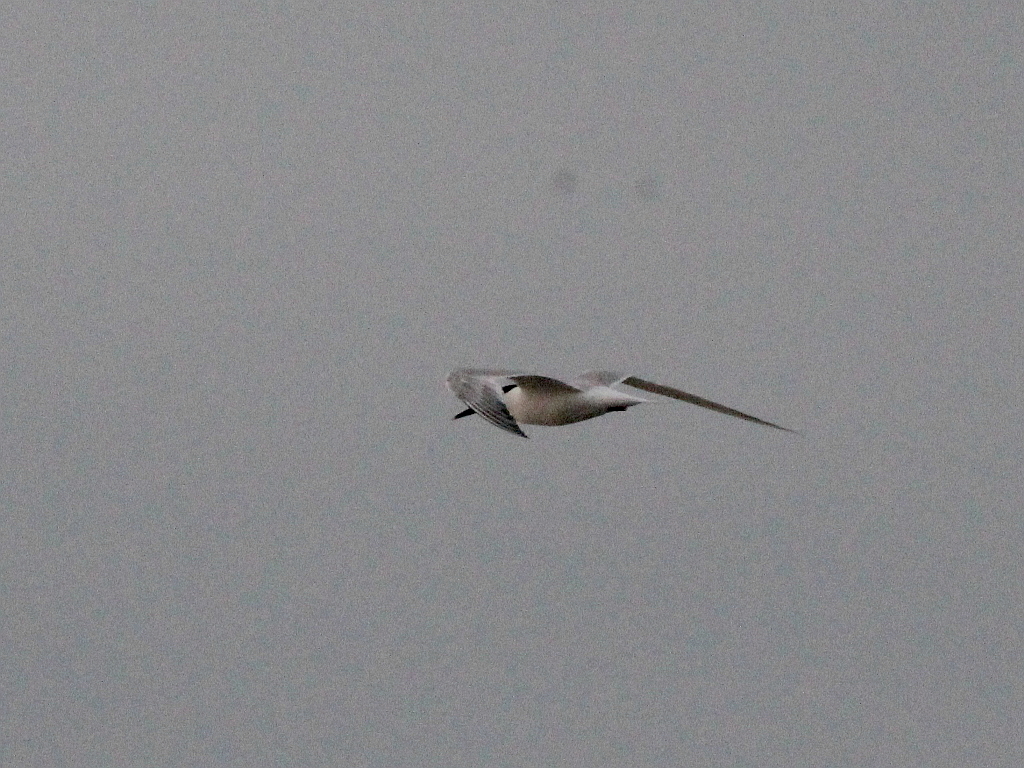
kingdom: Animalia
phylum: Chordata
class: Aves
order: Charadriiformes
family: Laridae
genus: Thalasseus
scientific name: Thalasseus sandvicensis
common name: Sandwich tern
